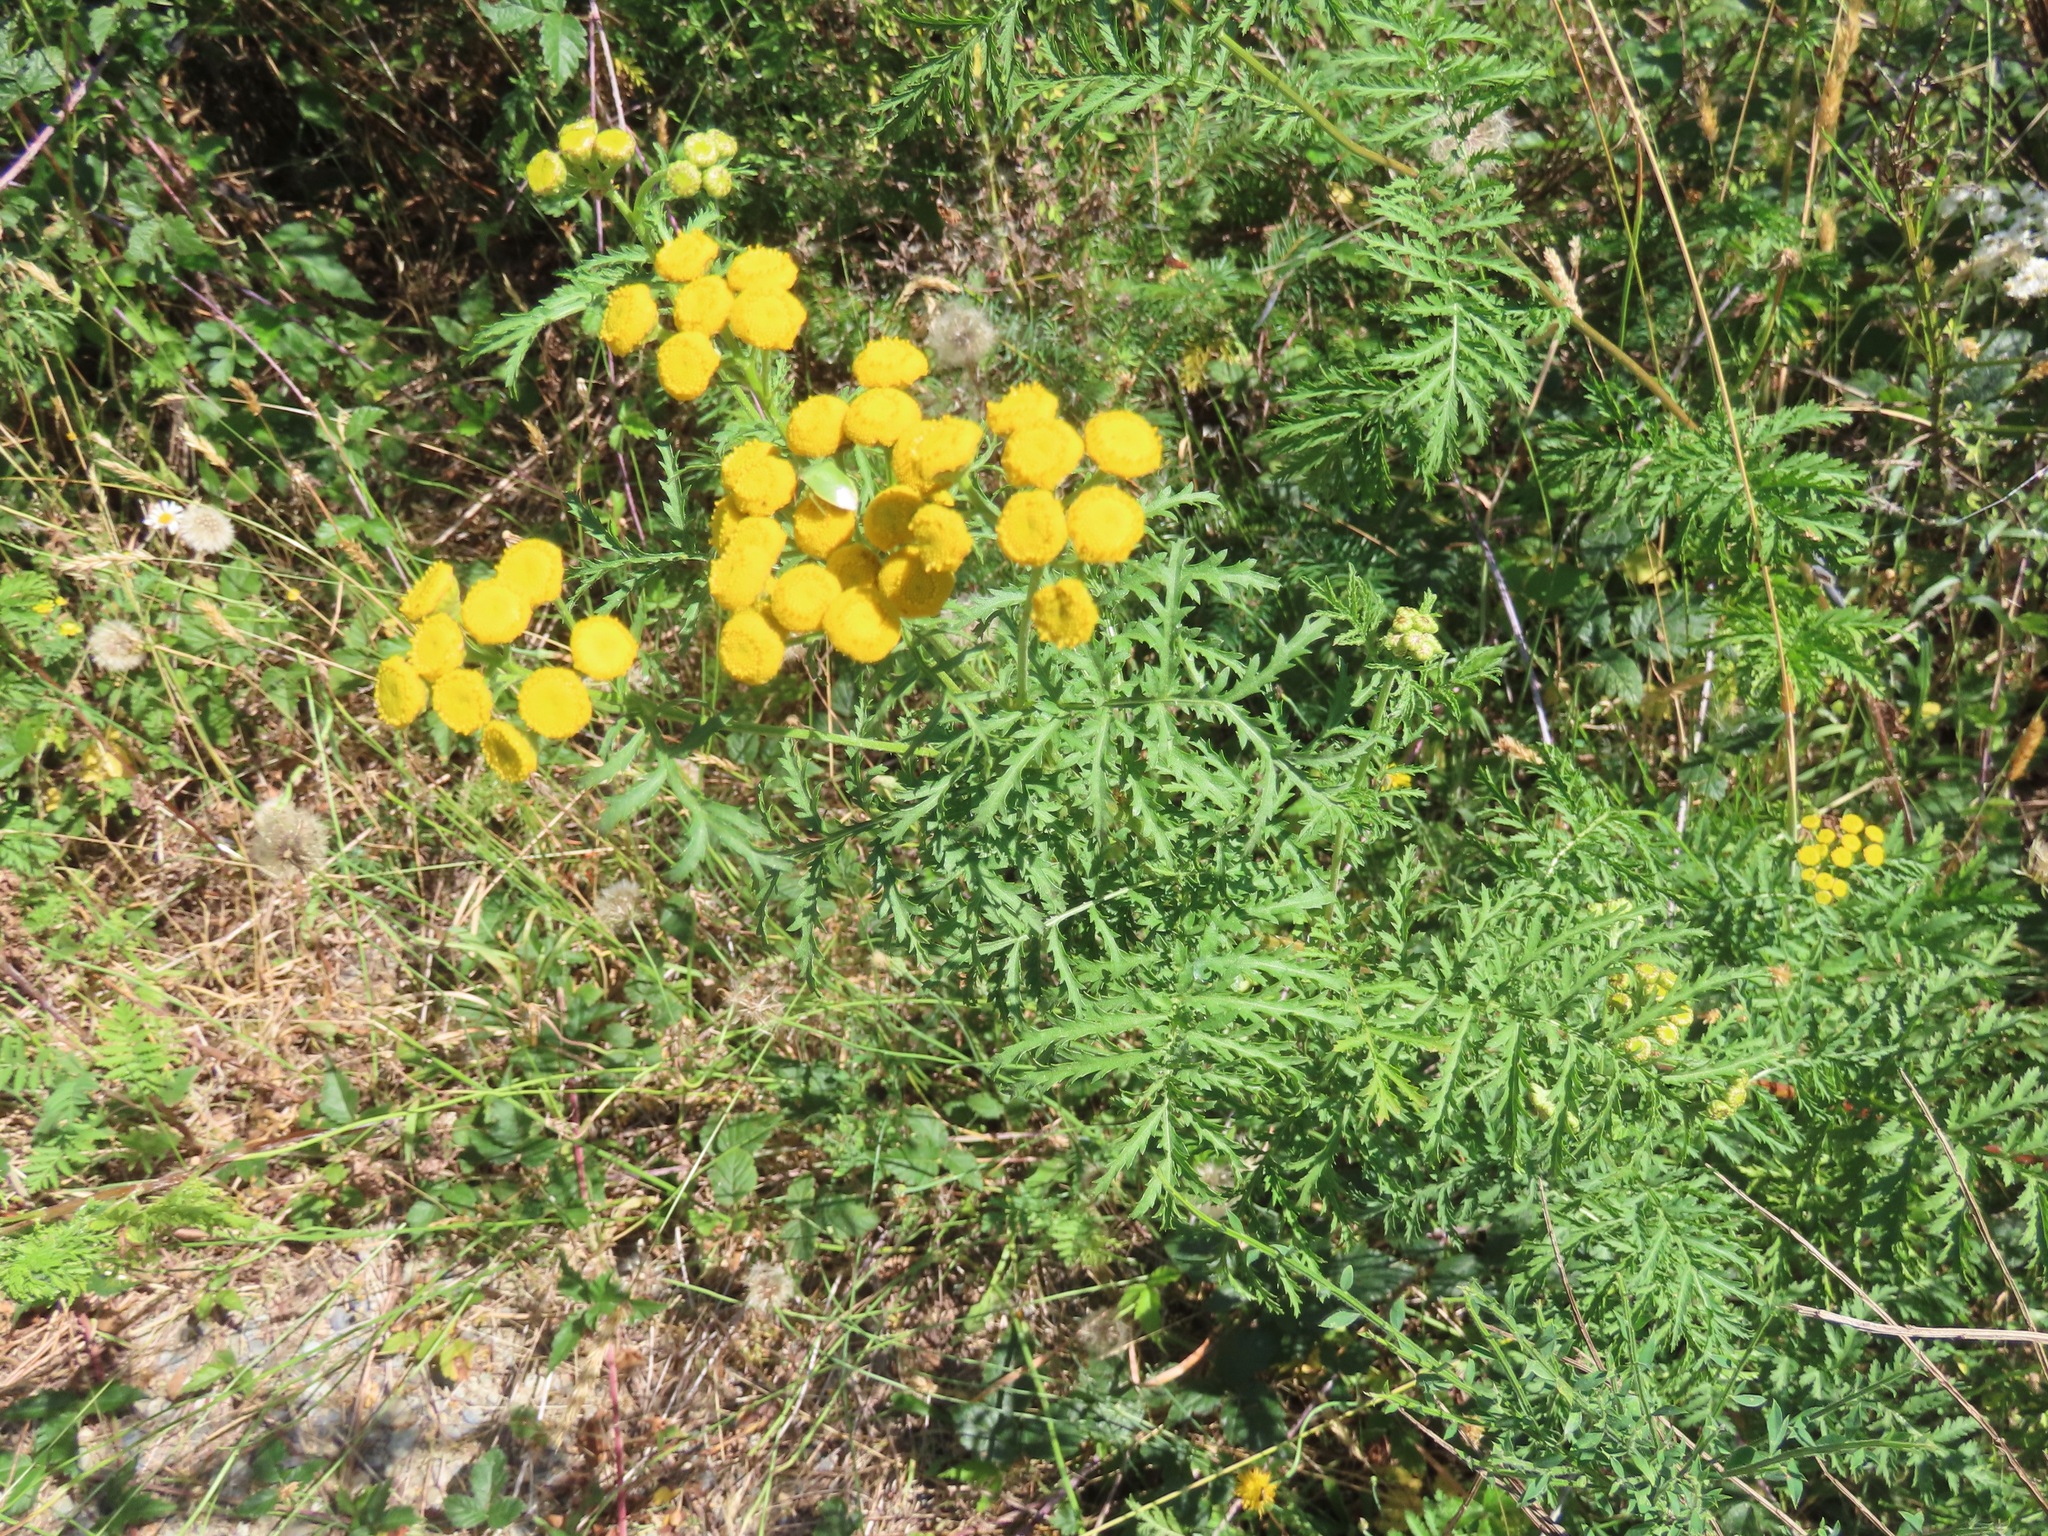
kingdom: Plantae
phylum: Tracheophyta
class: Magnoliopsida
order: Asterales
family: Asteraceae
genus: Tanacetum
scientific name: Tanacetum vulgare
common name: Common tansy
